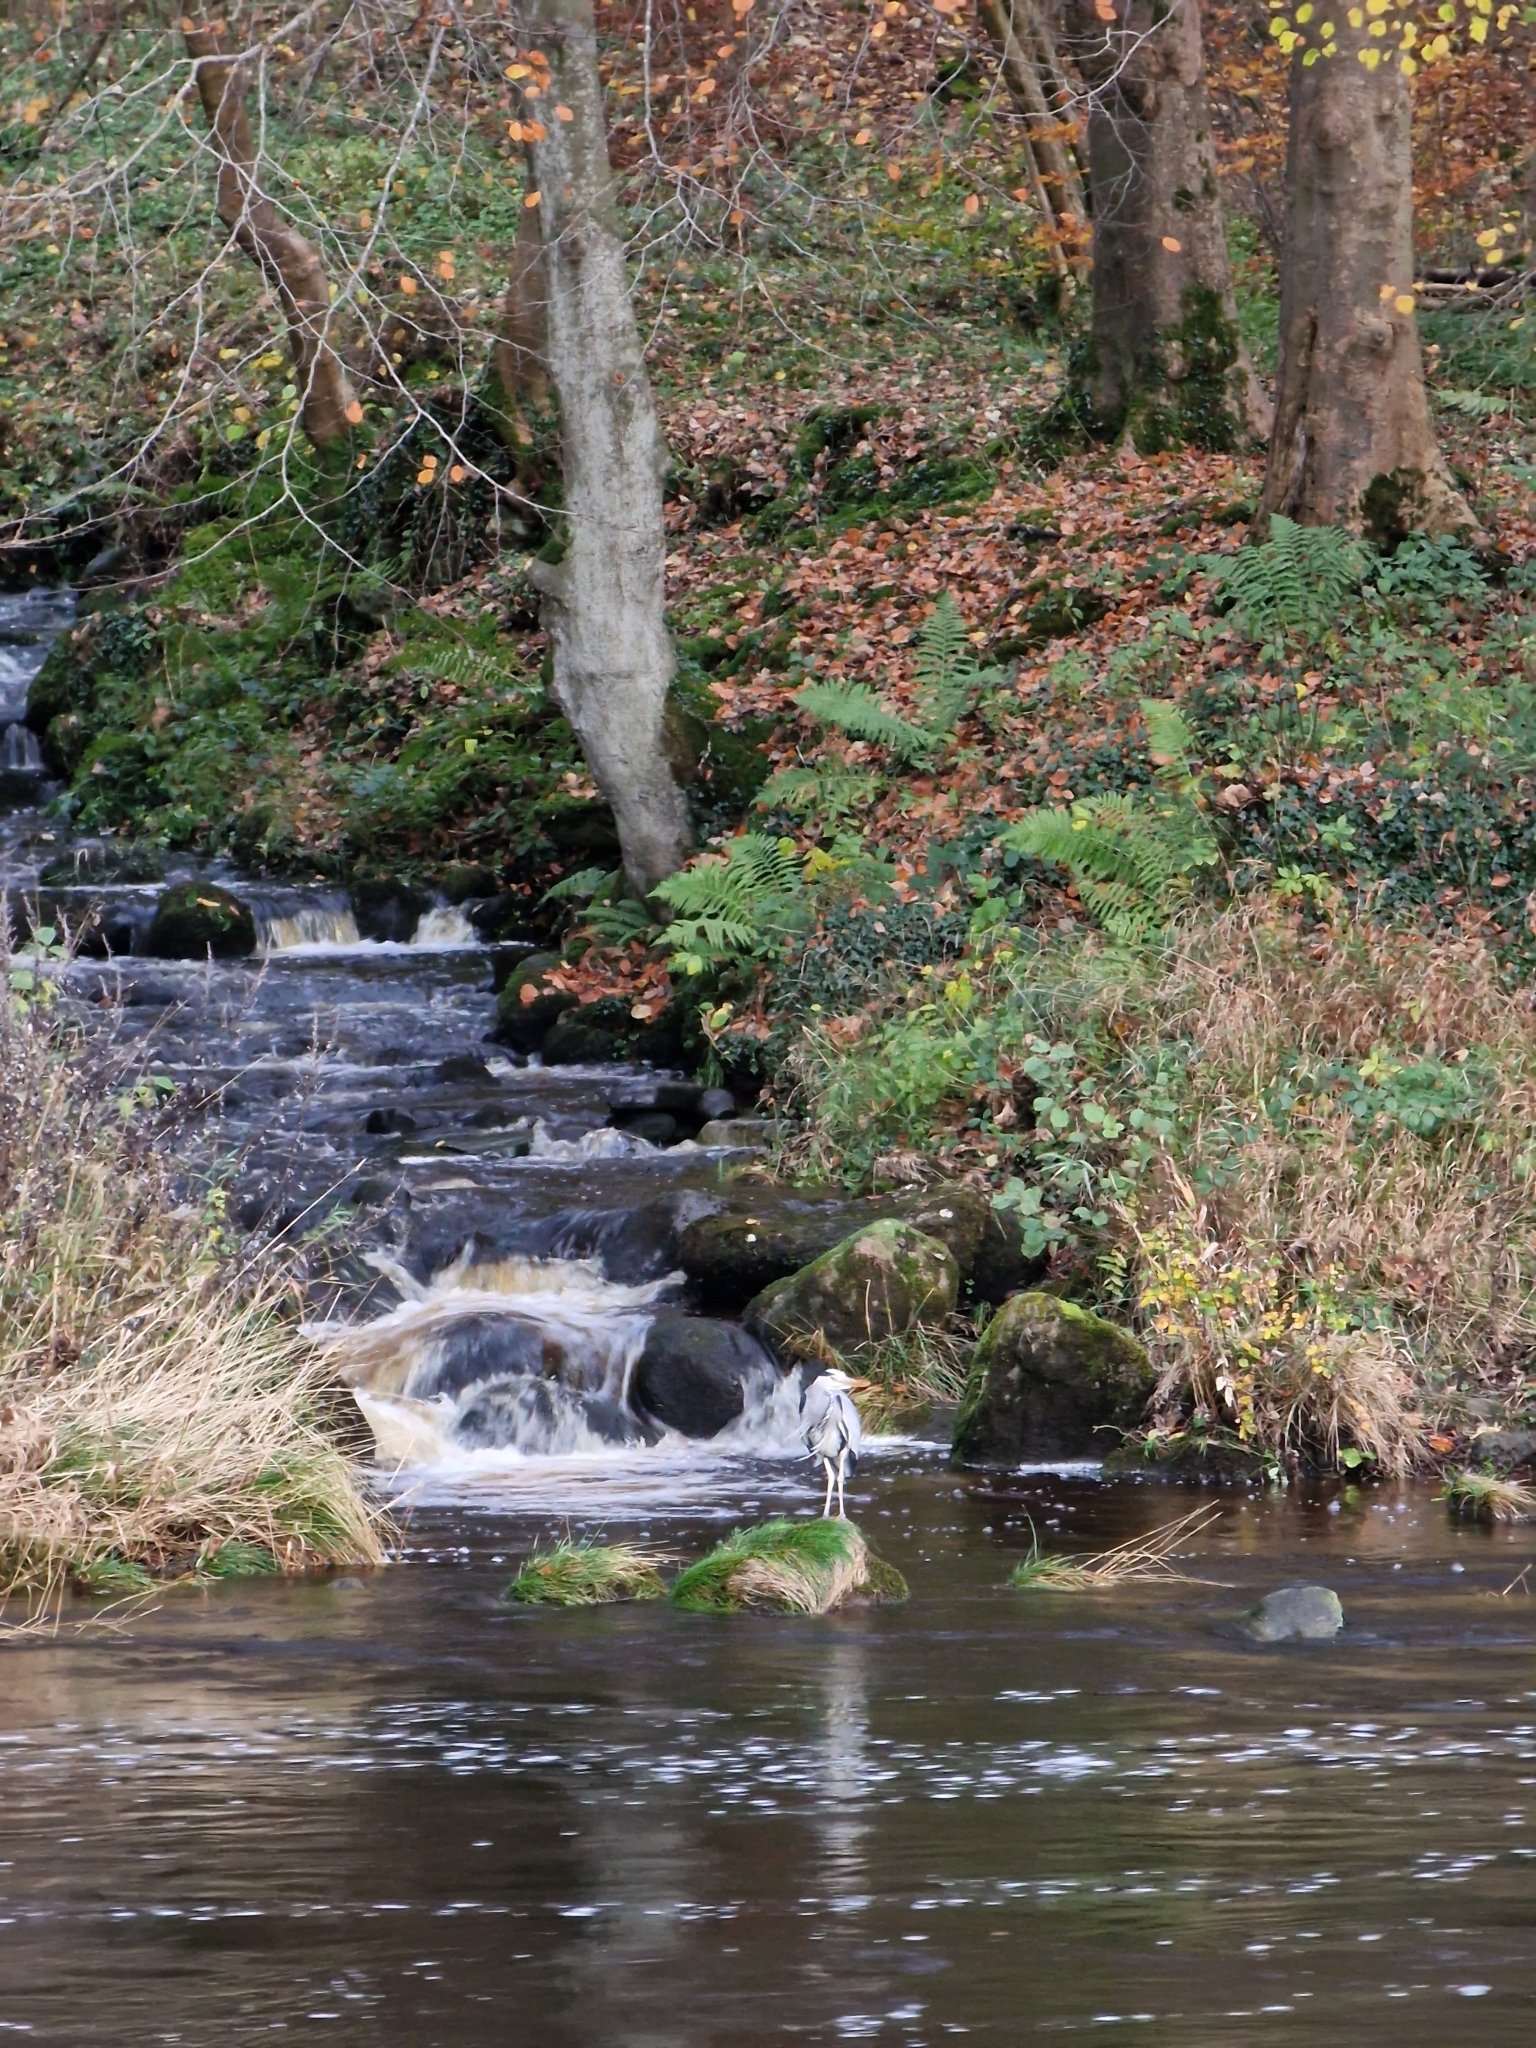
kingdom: Animalia
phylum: Chordata
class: Aves
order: Pelecaniformes
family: Ardeidae
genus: Ardea
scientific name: Ardea cinerea
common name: Grey heron
